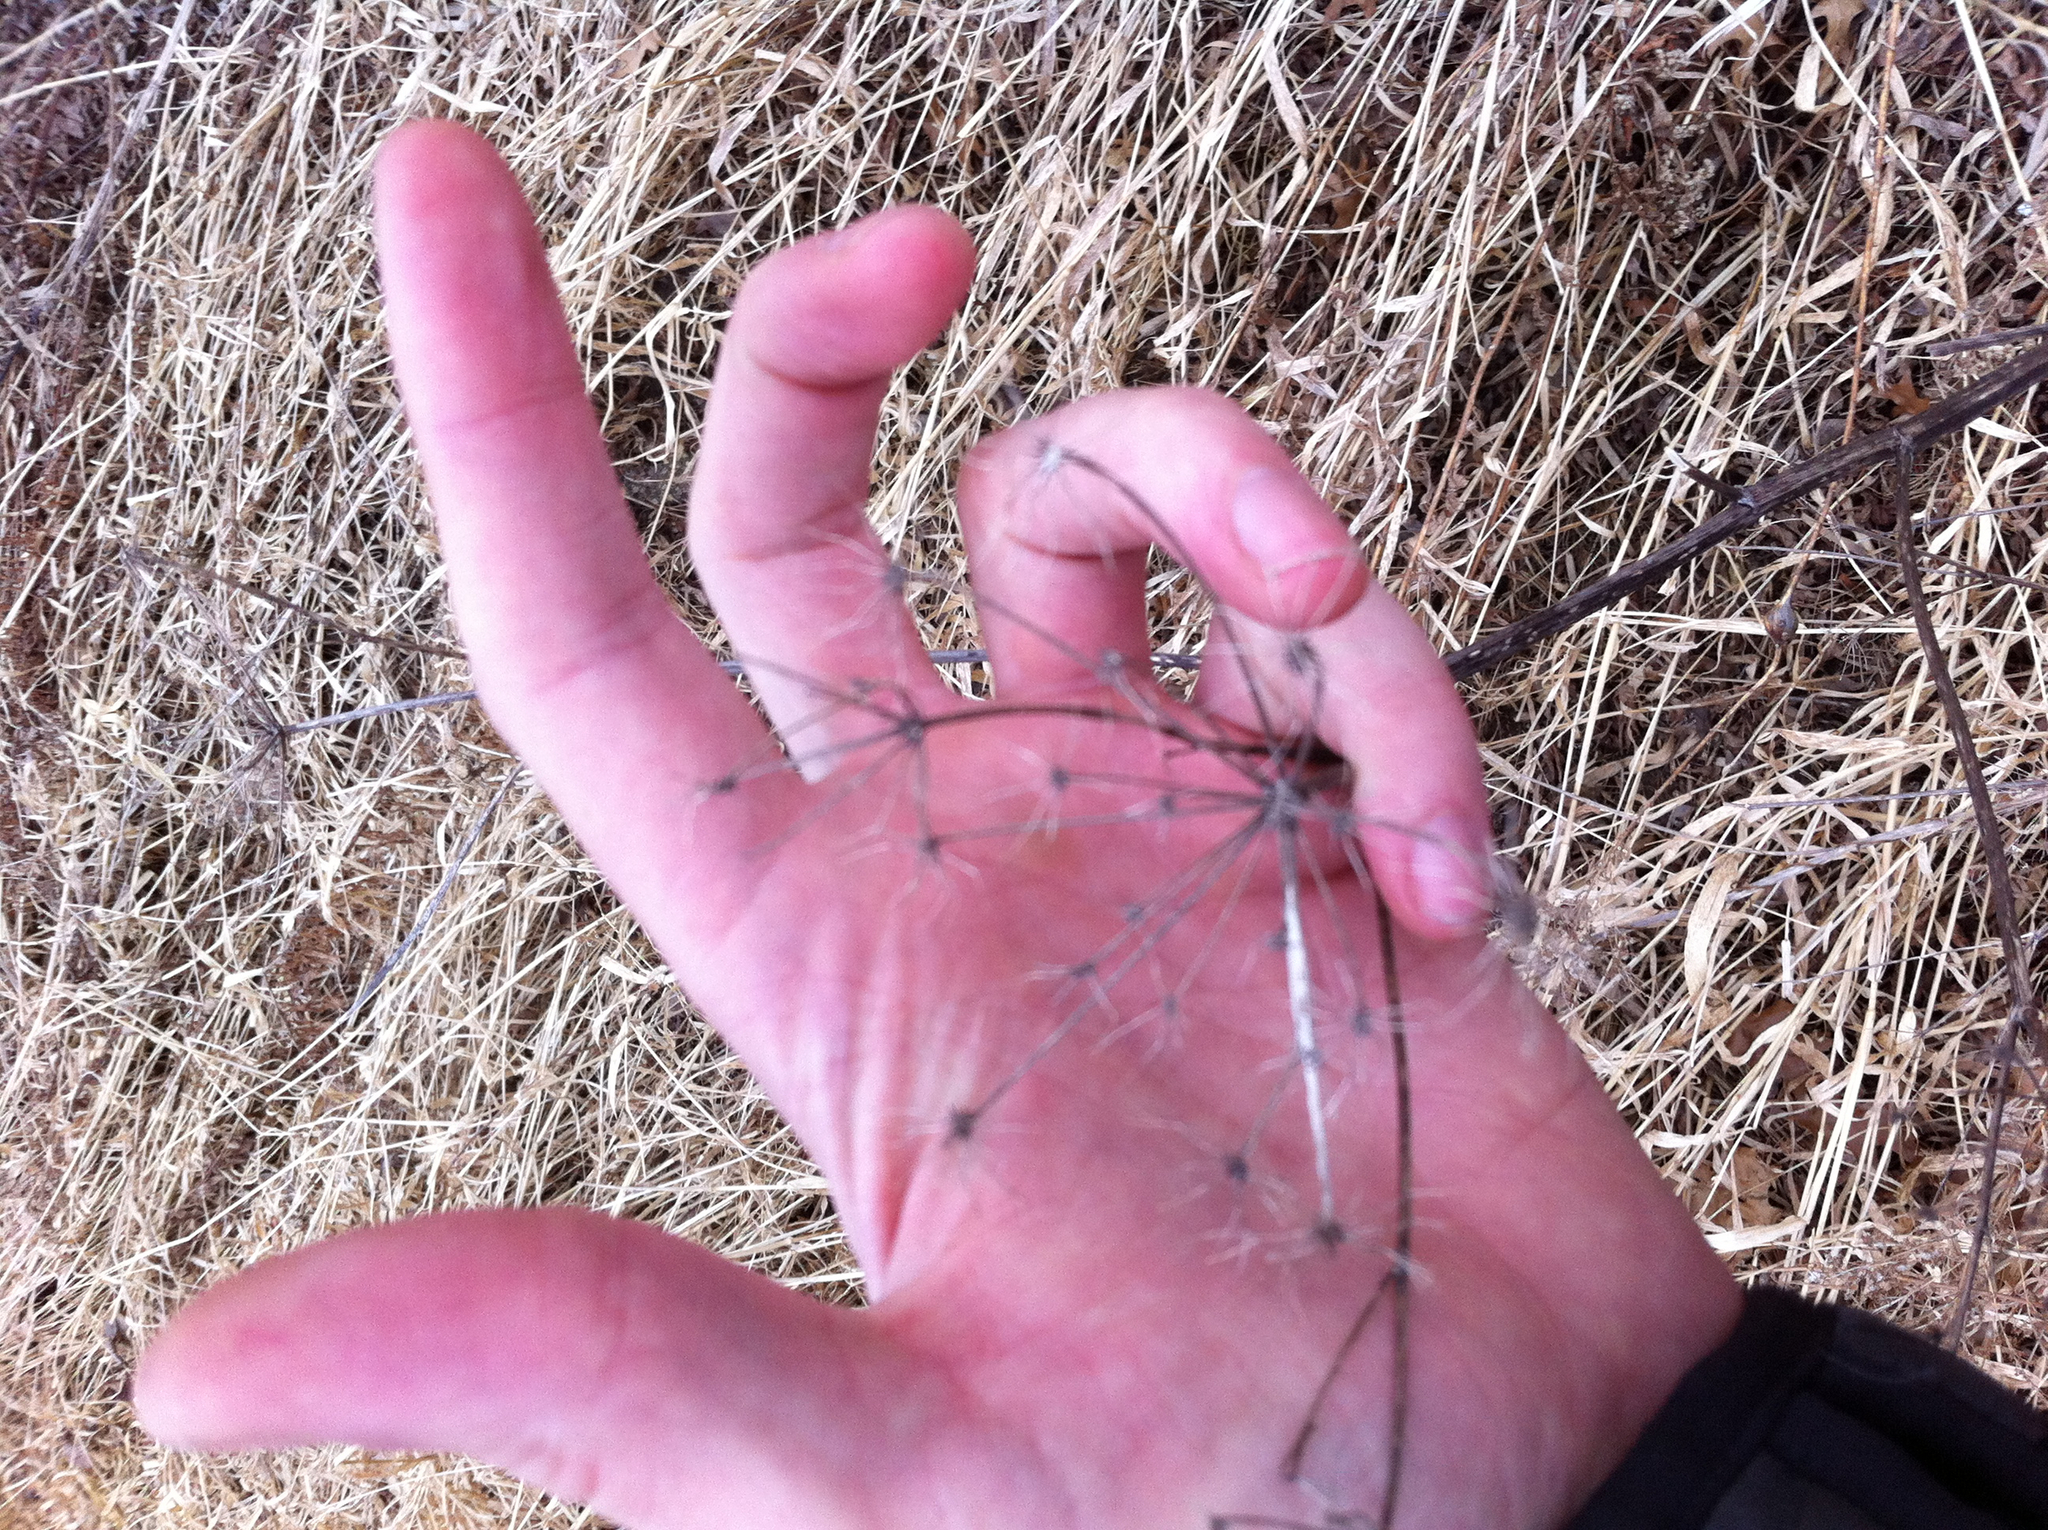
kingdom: Plantae
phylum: Tracheophyta
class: Magnoliopsida
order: Apiales
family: Apiaceae
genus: Pastinaca
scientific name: Pastinaca sativa
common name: Wild parsnip
